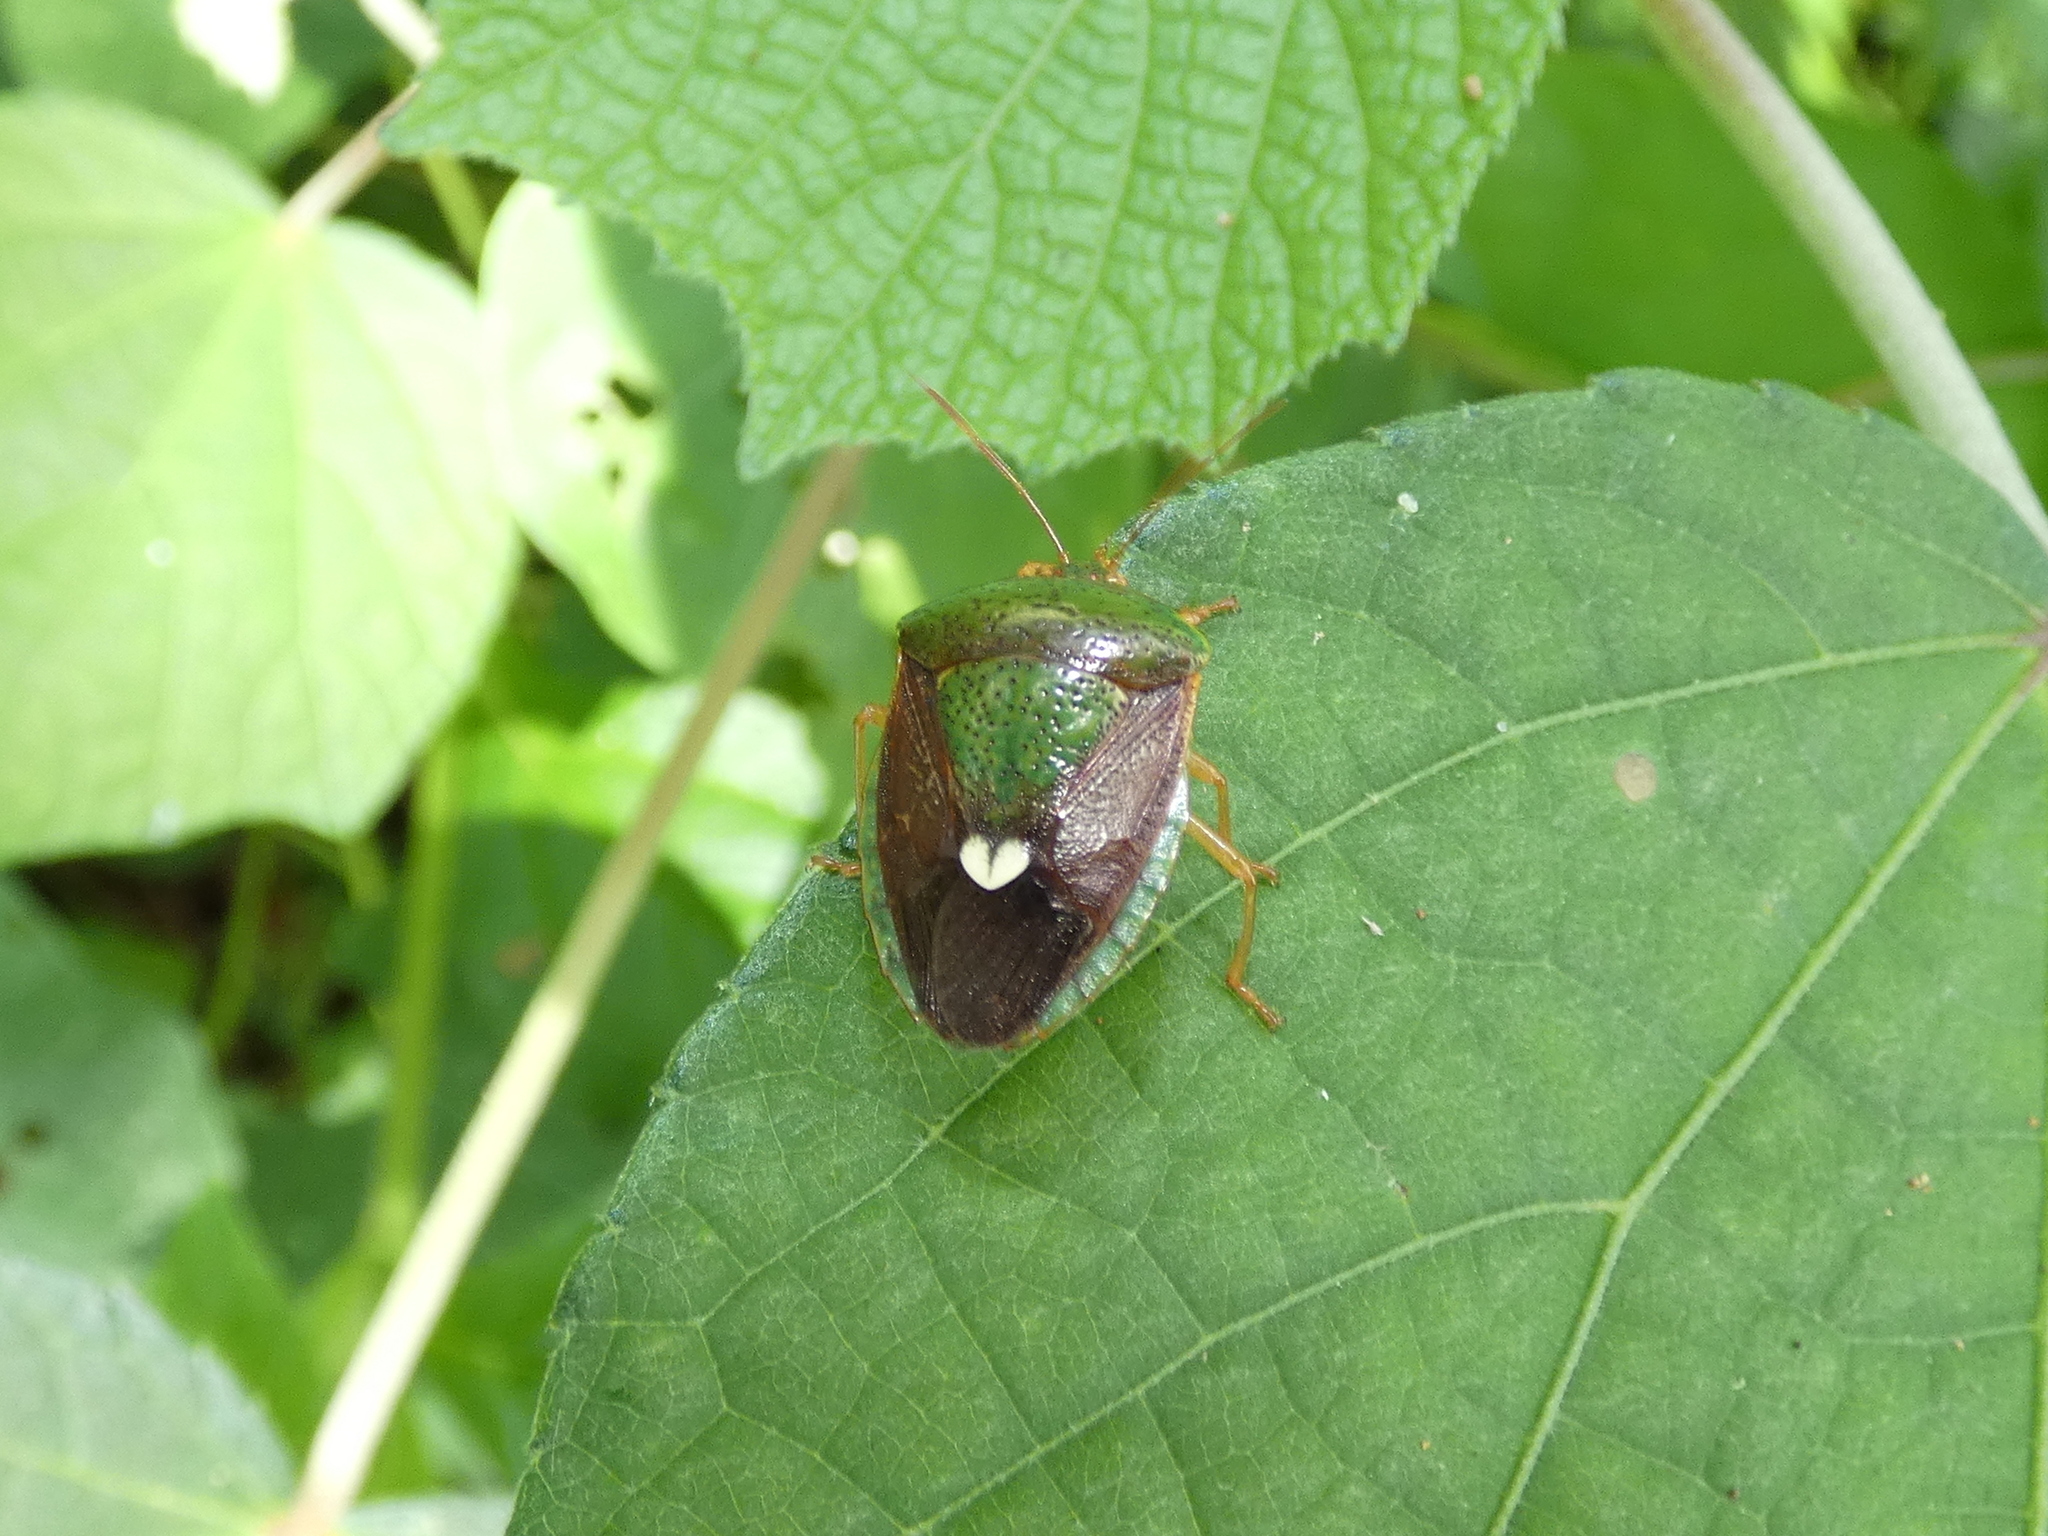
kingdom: Animalia
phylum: Arthropoda
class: Insecta
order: Hemiptera
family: Pentatomidae
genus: Edessa
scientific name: Edessa bifida
